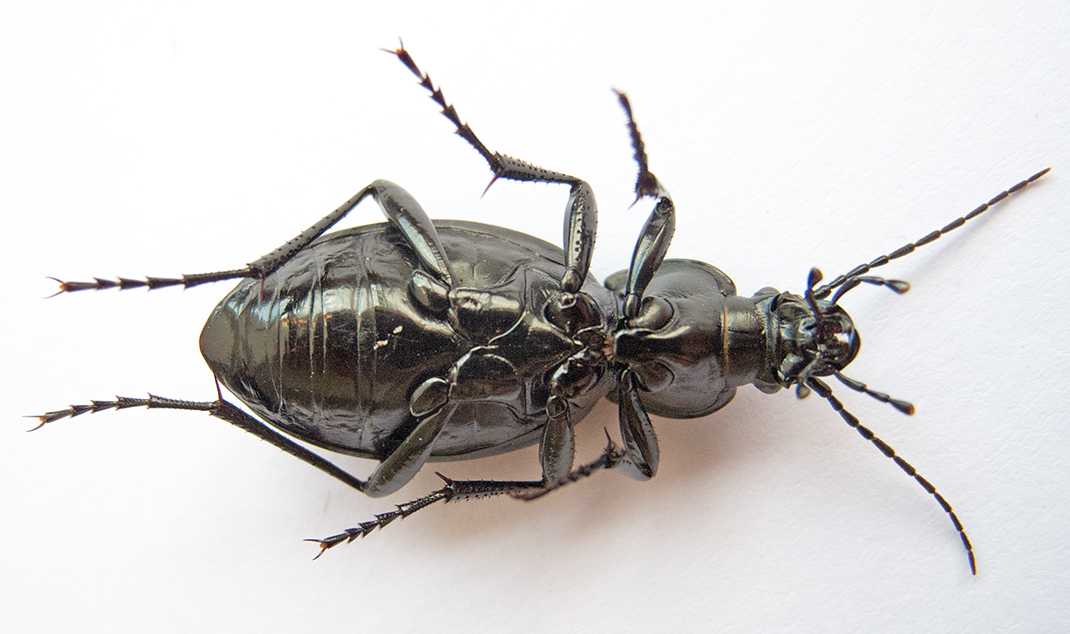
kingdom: Animalia
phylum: Arthropoda
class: Insecta
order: Coleoptera
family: Carabidae
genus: Carabus
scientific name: Carabus coriaceus
